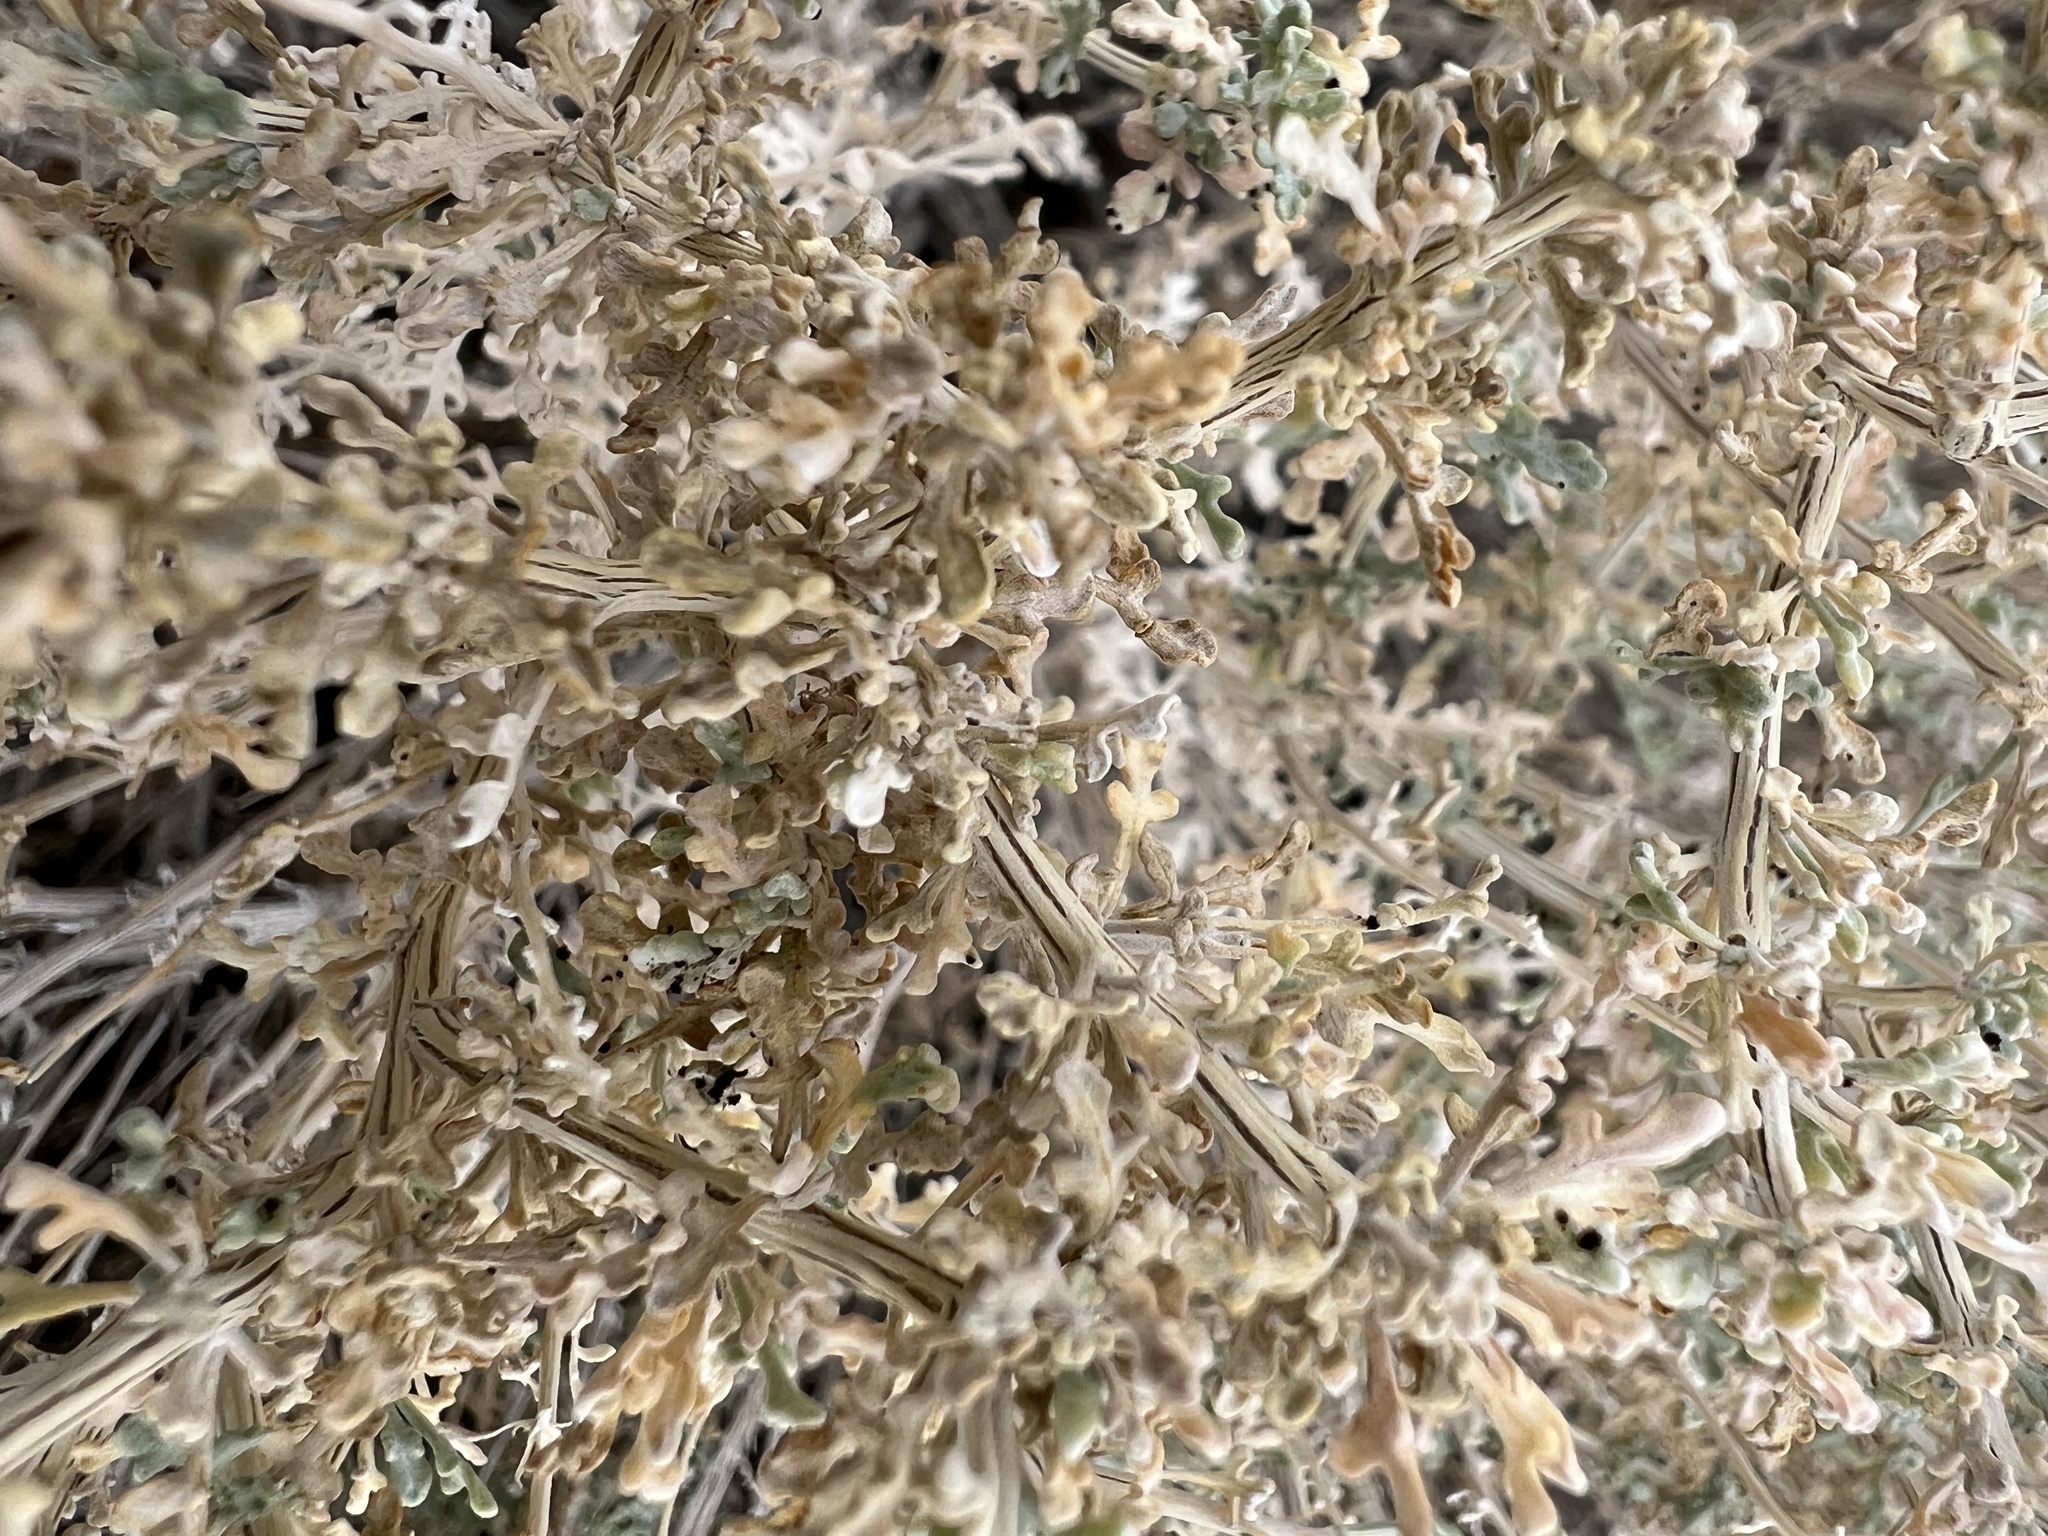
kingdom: Plantae
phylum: Tracheophyta
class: Magnoliopsida
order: Asterales
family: Asteraceae
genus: Ambrosia
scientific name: Ambrosia dumosa
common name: Bur-sage
